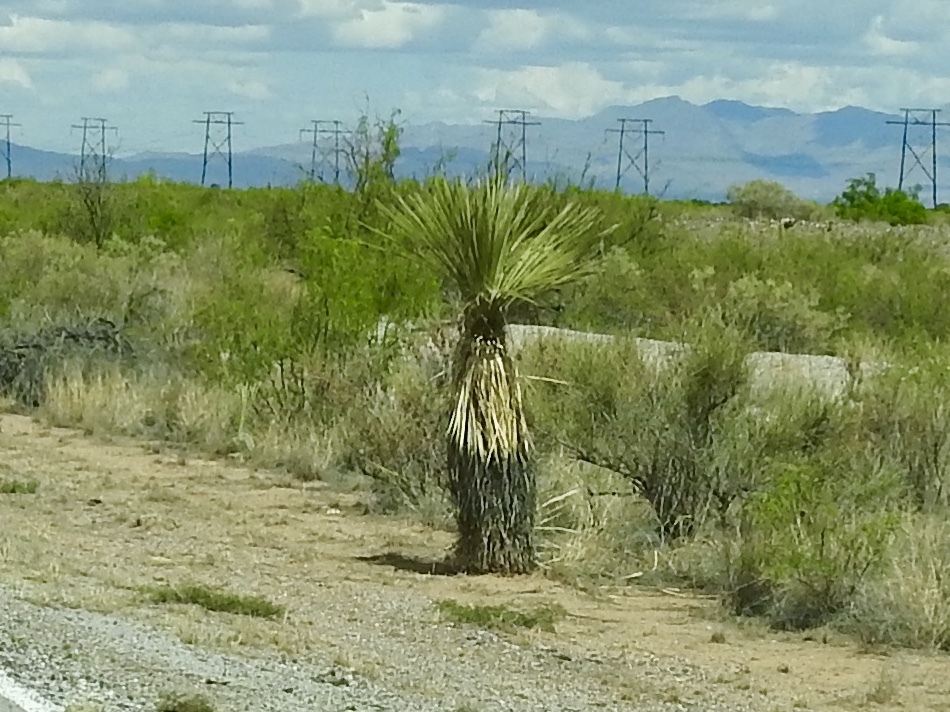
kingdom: Plantae
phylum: Tracheophyta
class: Liliopsida
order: Asparagales
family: Asparagaceae
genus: Yucca
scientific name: Yucca elata
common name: Palmella
